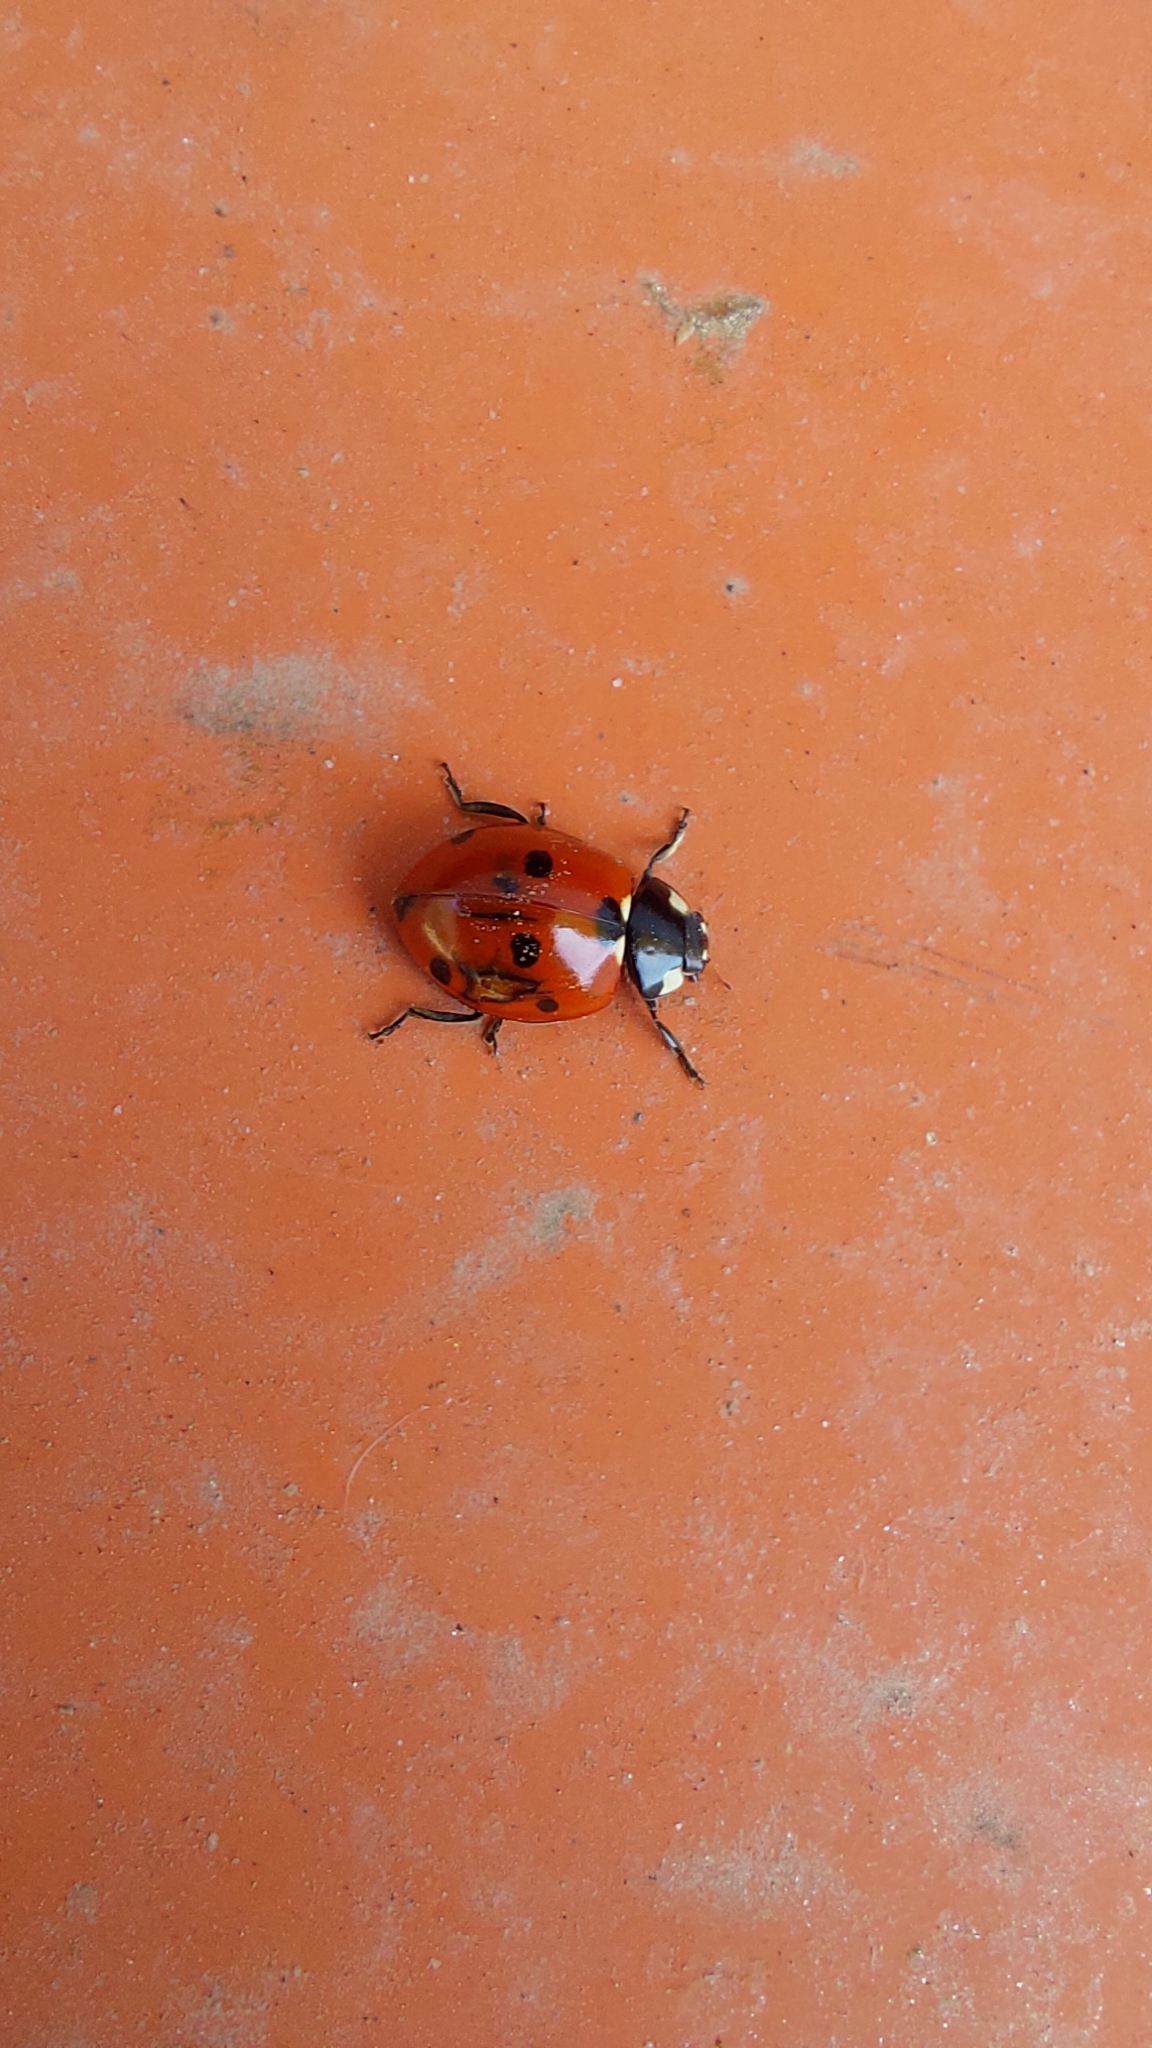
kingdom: Animalia
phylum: Arthropoda
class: Insecta
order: Coleoptera
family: Coccinellidae
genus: Coccinella
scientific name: Coccinella septempunctata
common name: Sevenspotted lady beetle
